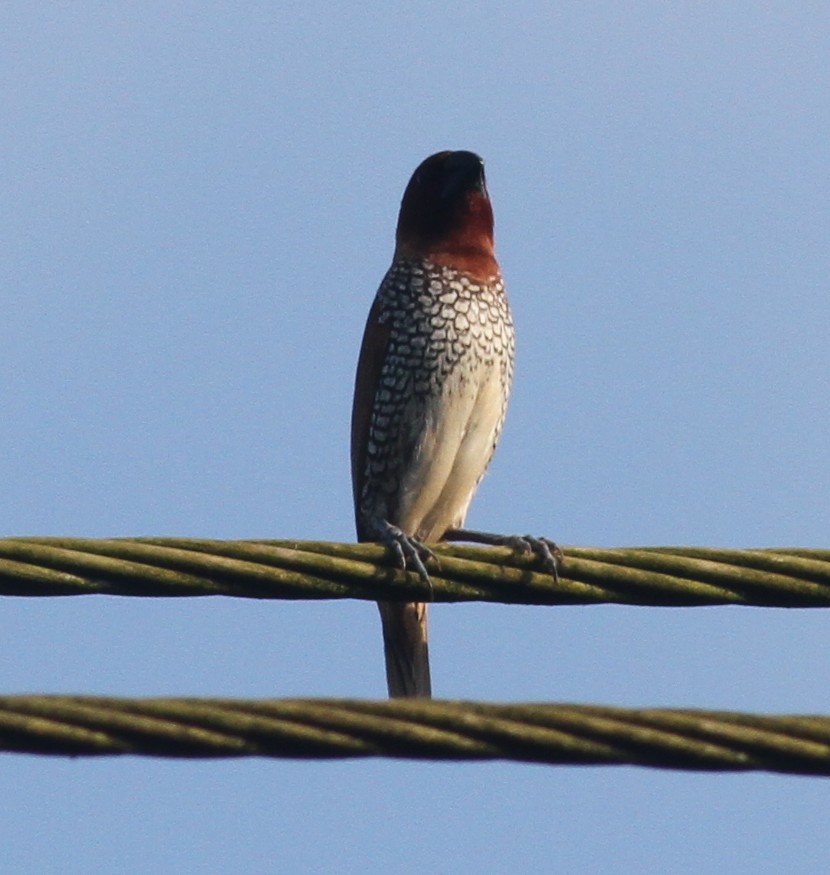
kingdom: Animalia
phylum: Chordata
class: Aves
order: Passeriformes
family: Estrildidae
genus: Lonchura
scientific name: Lonchura punctulata
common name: Scaly-breasted munia
